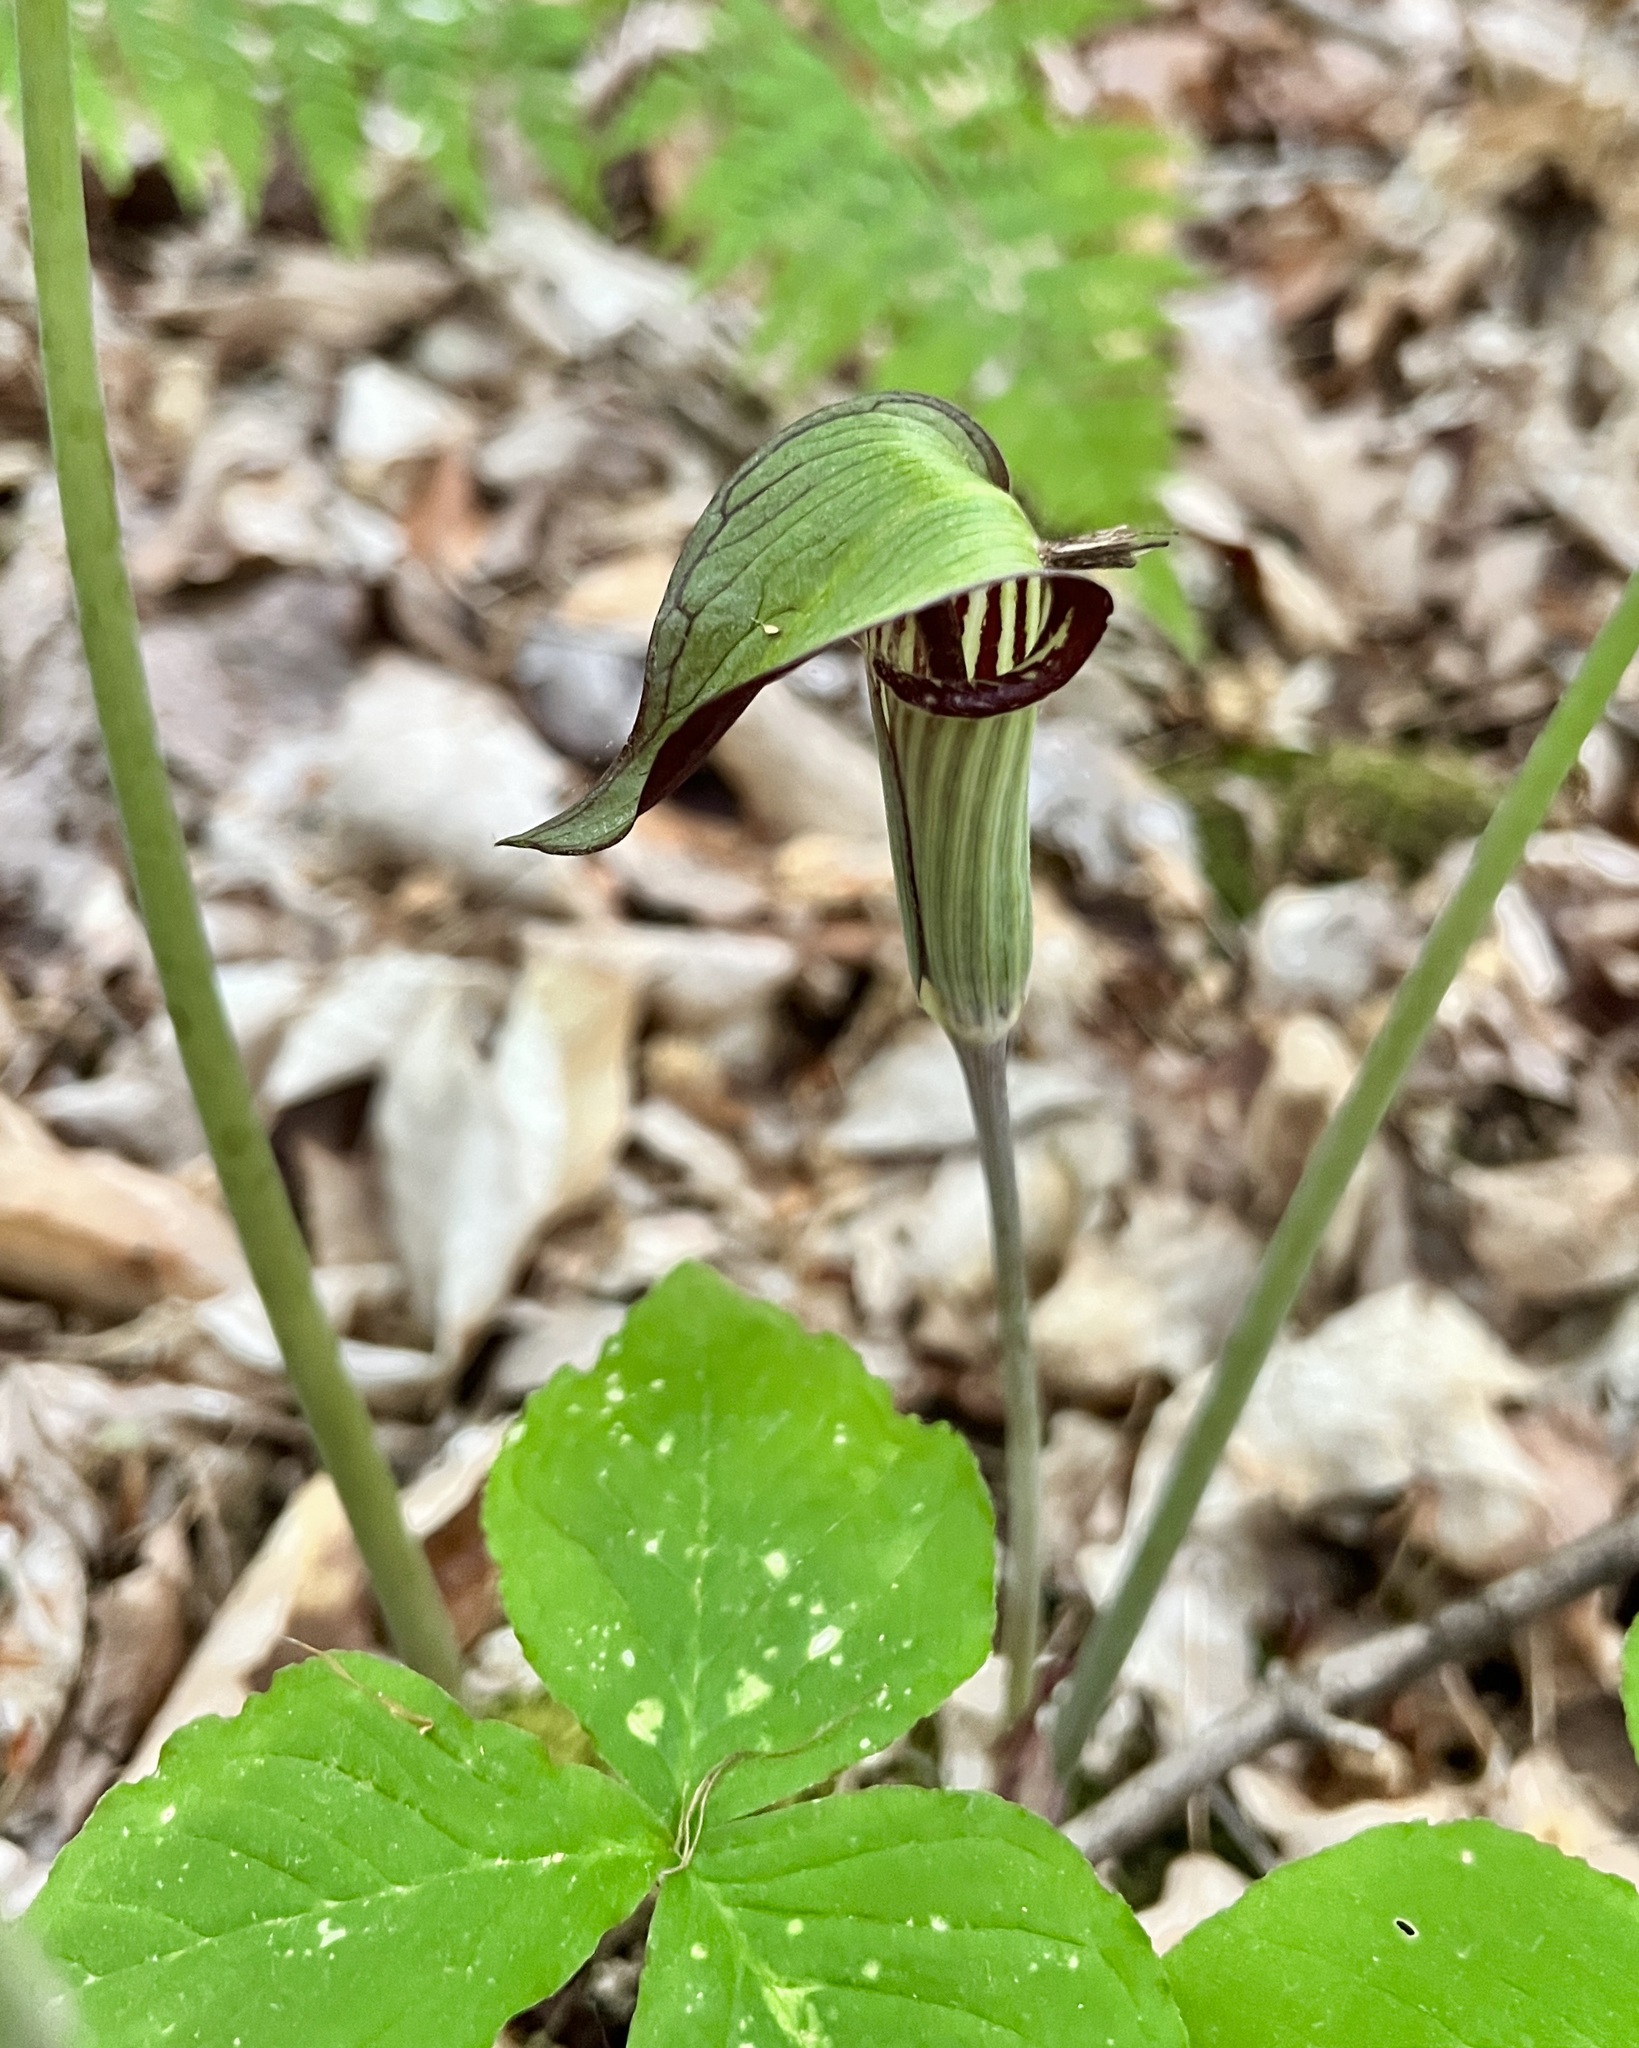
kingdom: Plantae
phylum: Tracheophyta
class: Liliopsida
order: Alismatales
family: Araceae
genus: Arisaema
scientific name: Arisaema triphyllum
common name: Jack-in-the-pulpit
